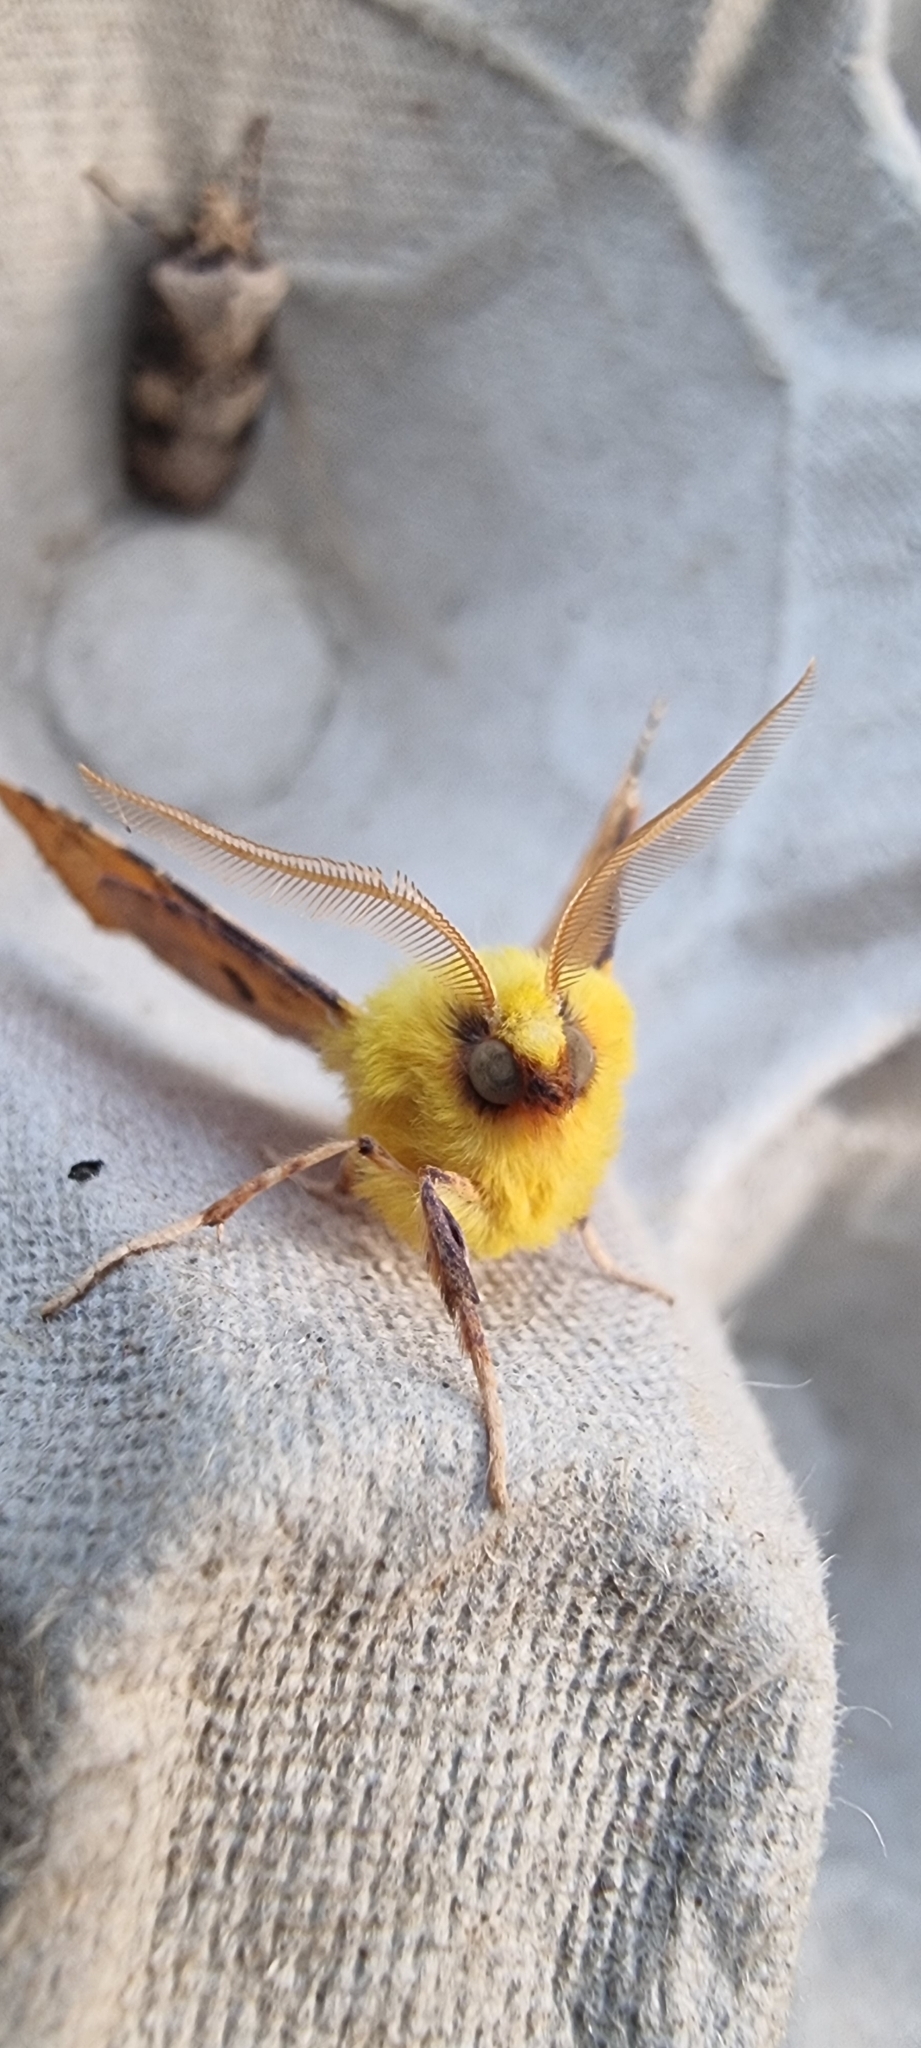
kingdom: Animalia
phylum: Arthropoda
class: Insecta
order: Lepidoptera
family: Geometridae
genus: Ennomos
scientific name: Ennomos alniaria
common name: Canary-shouldered thorn
